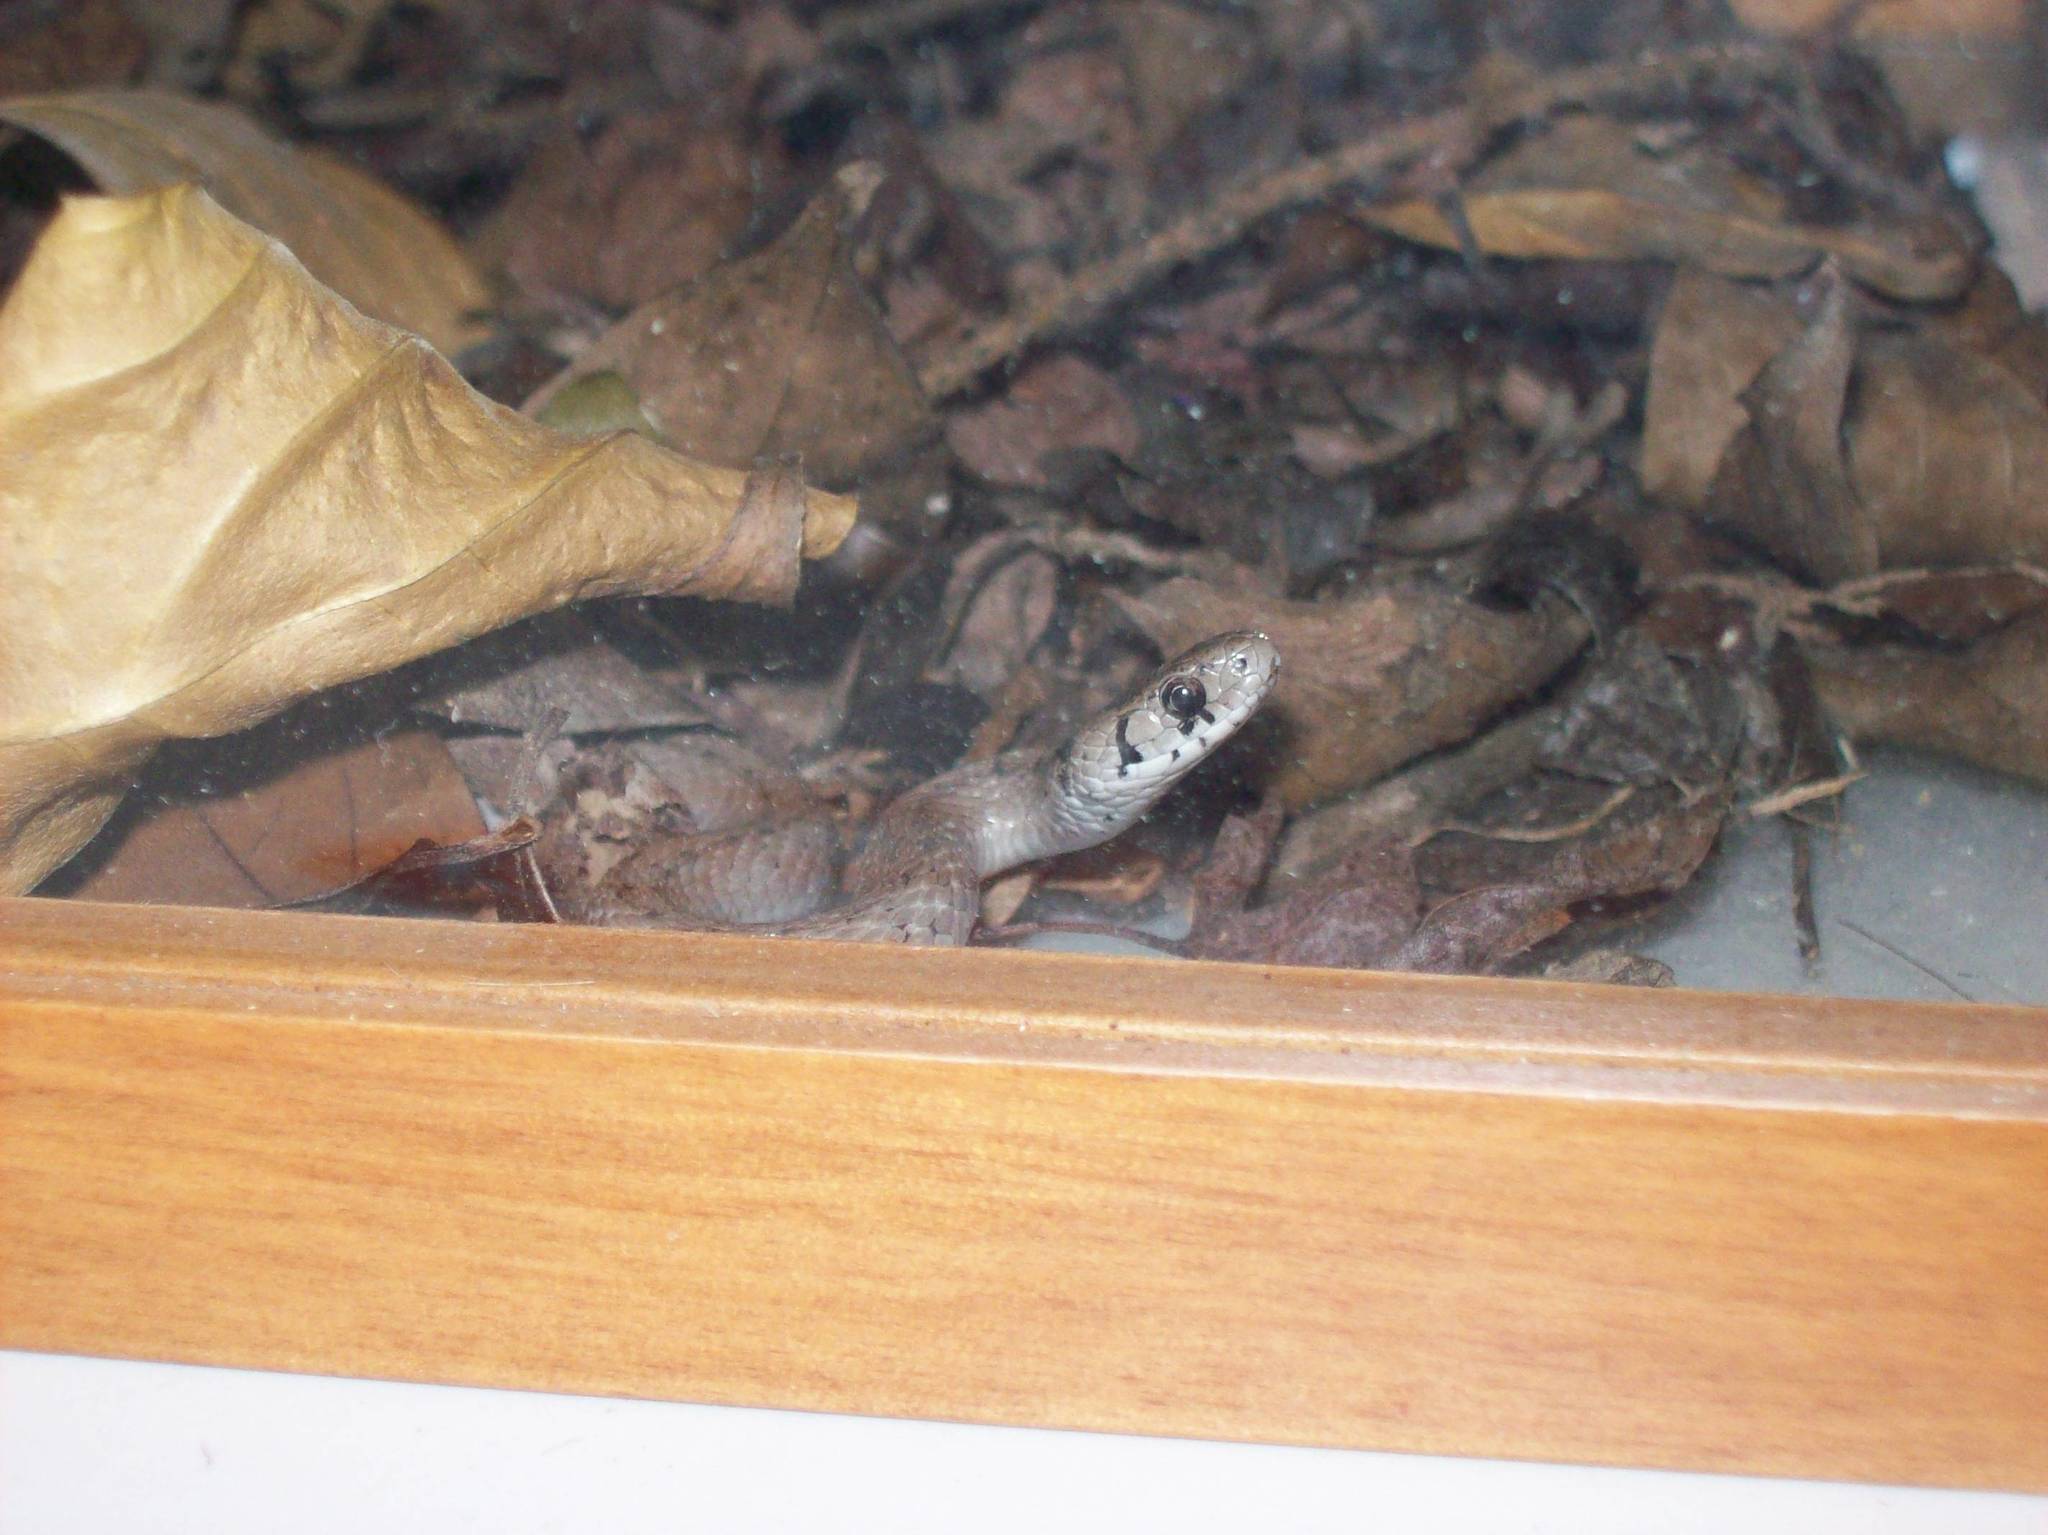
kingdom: Animalia
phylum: Chordata
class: Squamata
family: Colubridae
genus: Storeria
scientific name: Storeria dekayi
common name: (dekay’s) brown snake
